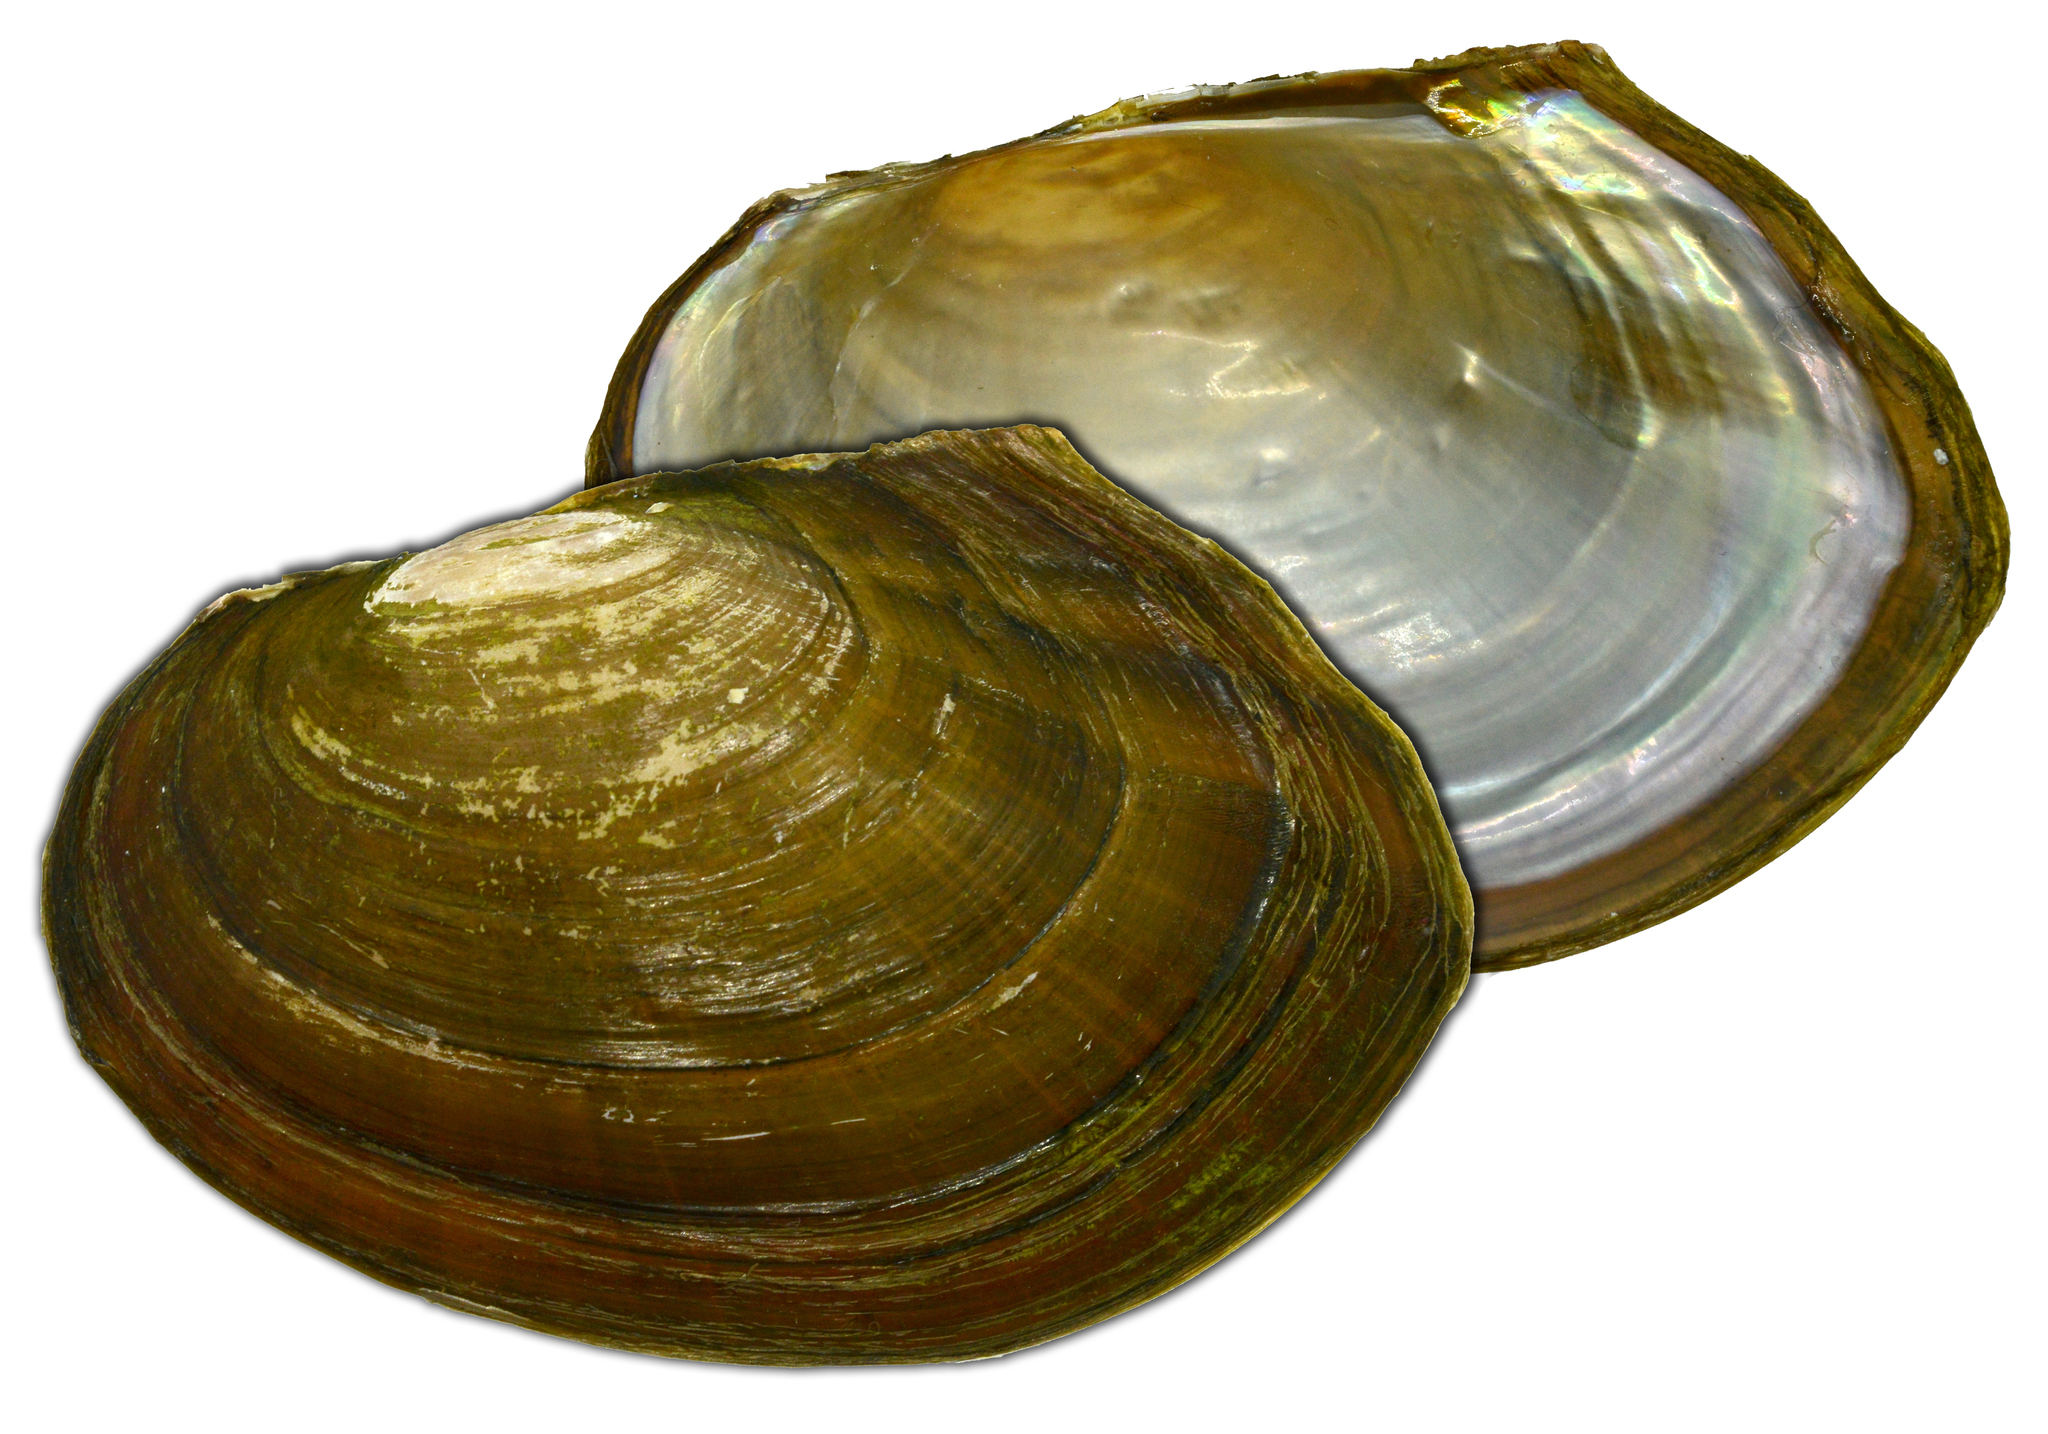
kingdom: Animalia
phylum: Mollusca
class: Bivalvia
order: Unionida
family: Unionidae
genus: Sinanodonta
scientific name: Sinanodonta lauta
